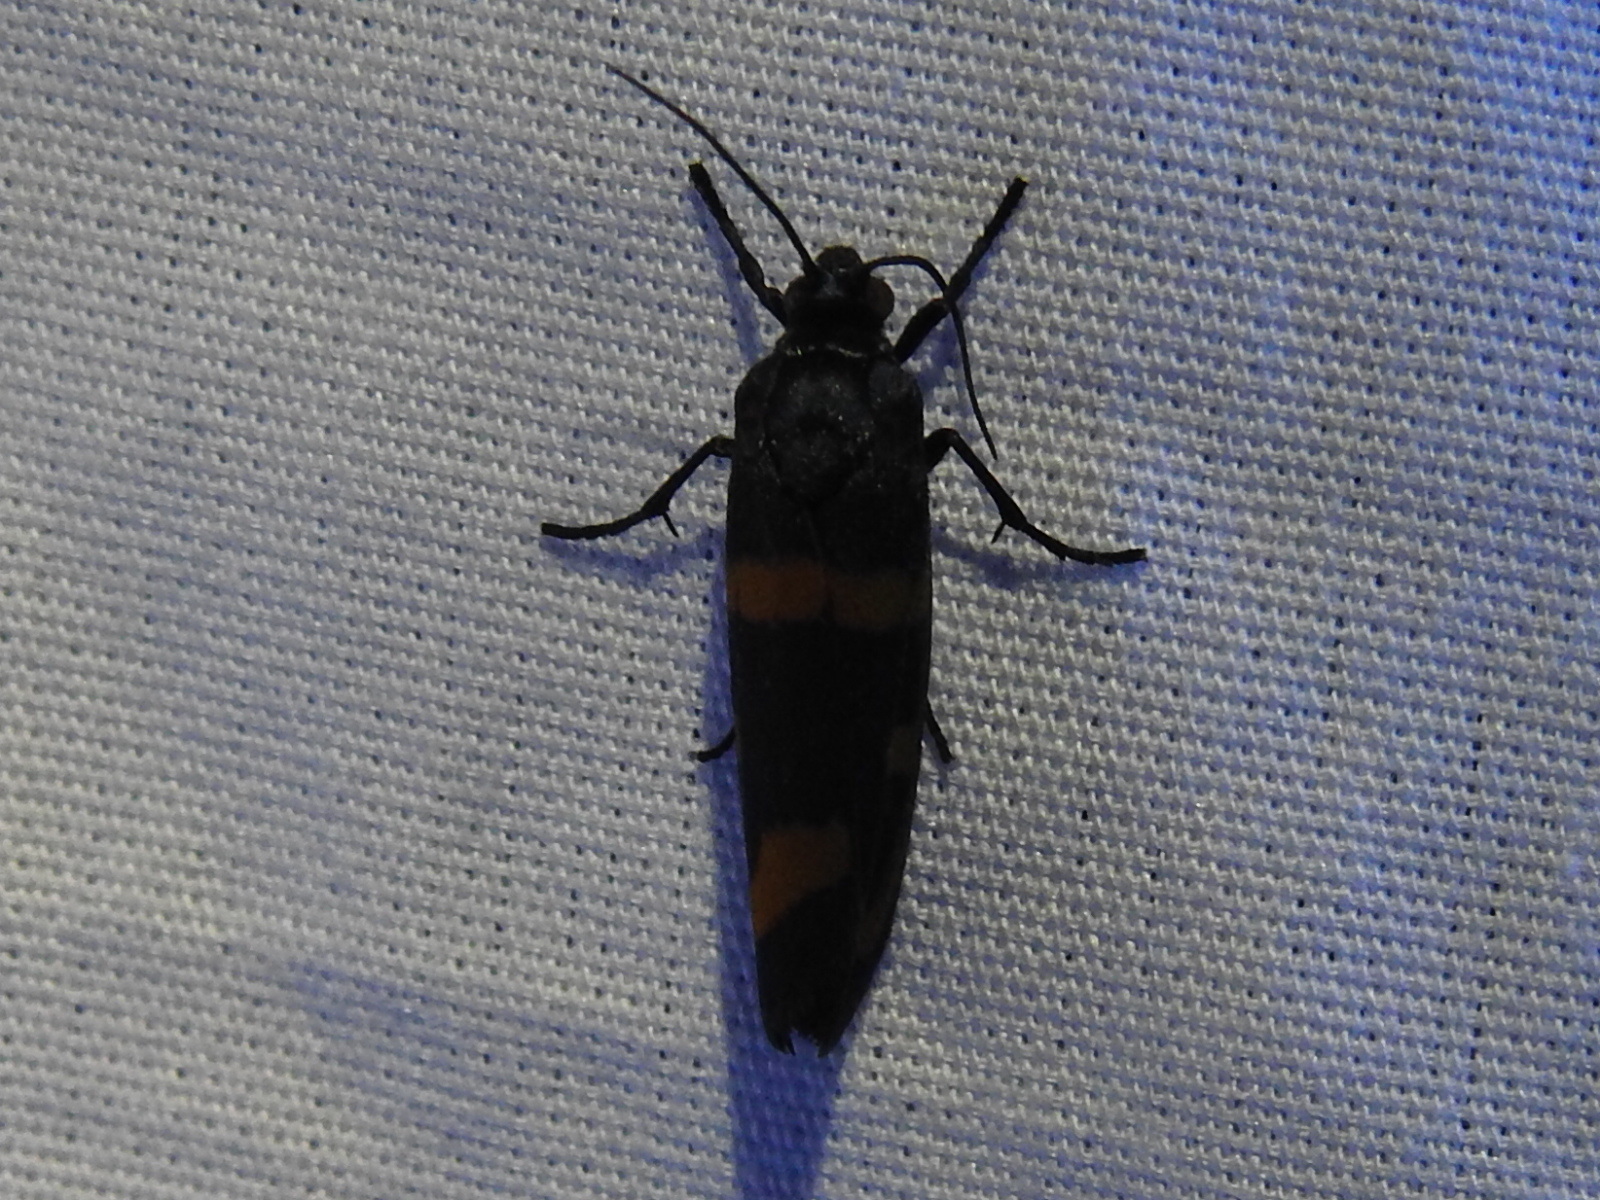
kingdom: Animalia
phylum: Arthropoda
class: Insecta
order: Lepidoptera
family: Noctuidae
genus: Cydosia
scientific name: Cydosia aurivitta
